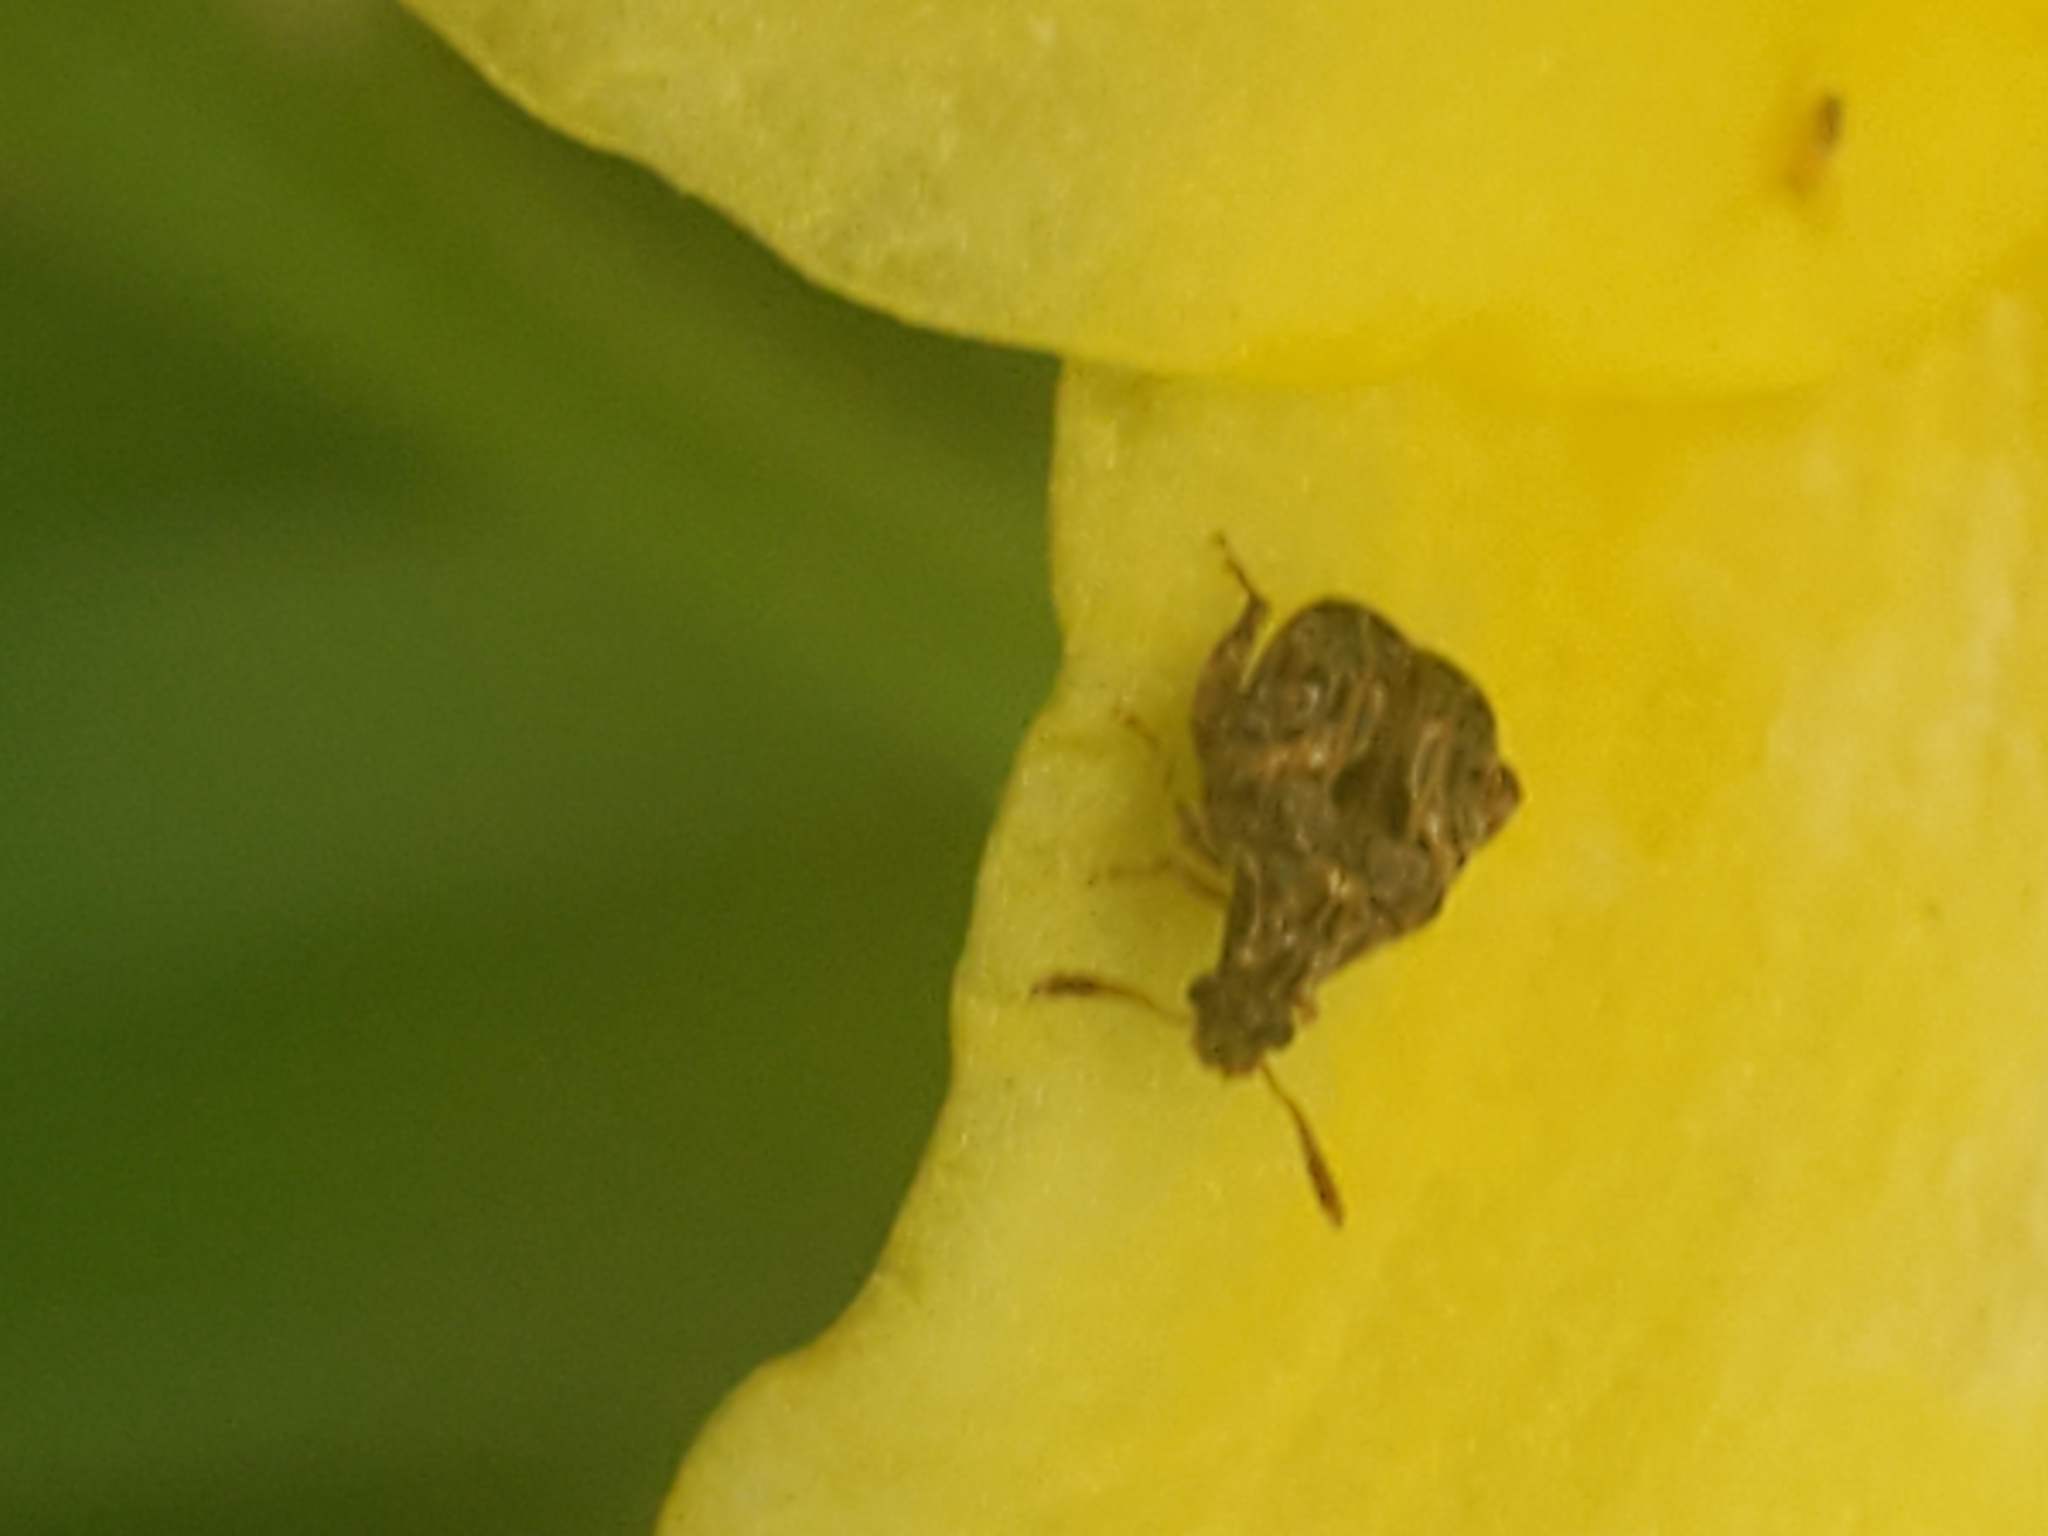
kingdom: Animalia
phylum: Arthropoda
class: Insecta
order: Coleoptera
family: Chrysomelidae
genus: Gibbobruchus
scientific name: Gibbobruchus mimus
